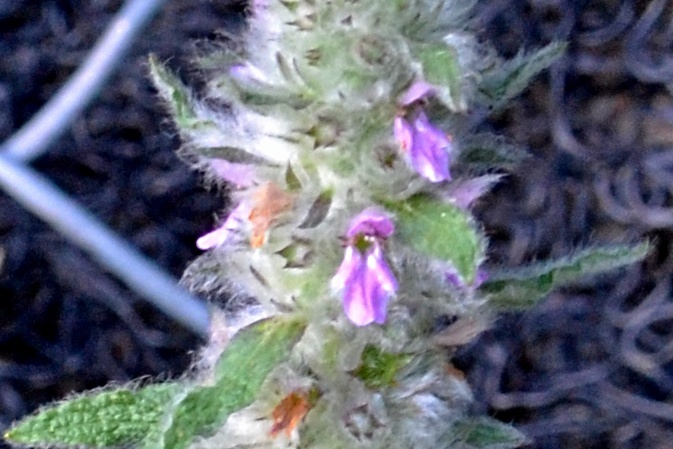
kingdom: Plantae
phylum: Tracheophyta
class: Magnoliopsida
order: Lamiales
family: Lamiaceae
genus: Stachys
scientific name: Stachys germanica
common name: Downy woundwort
